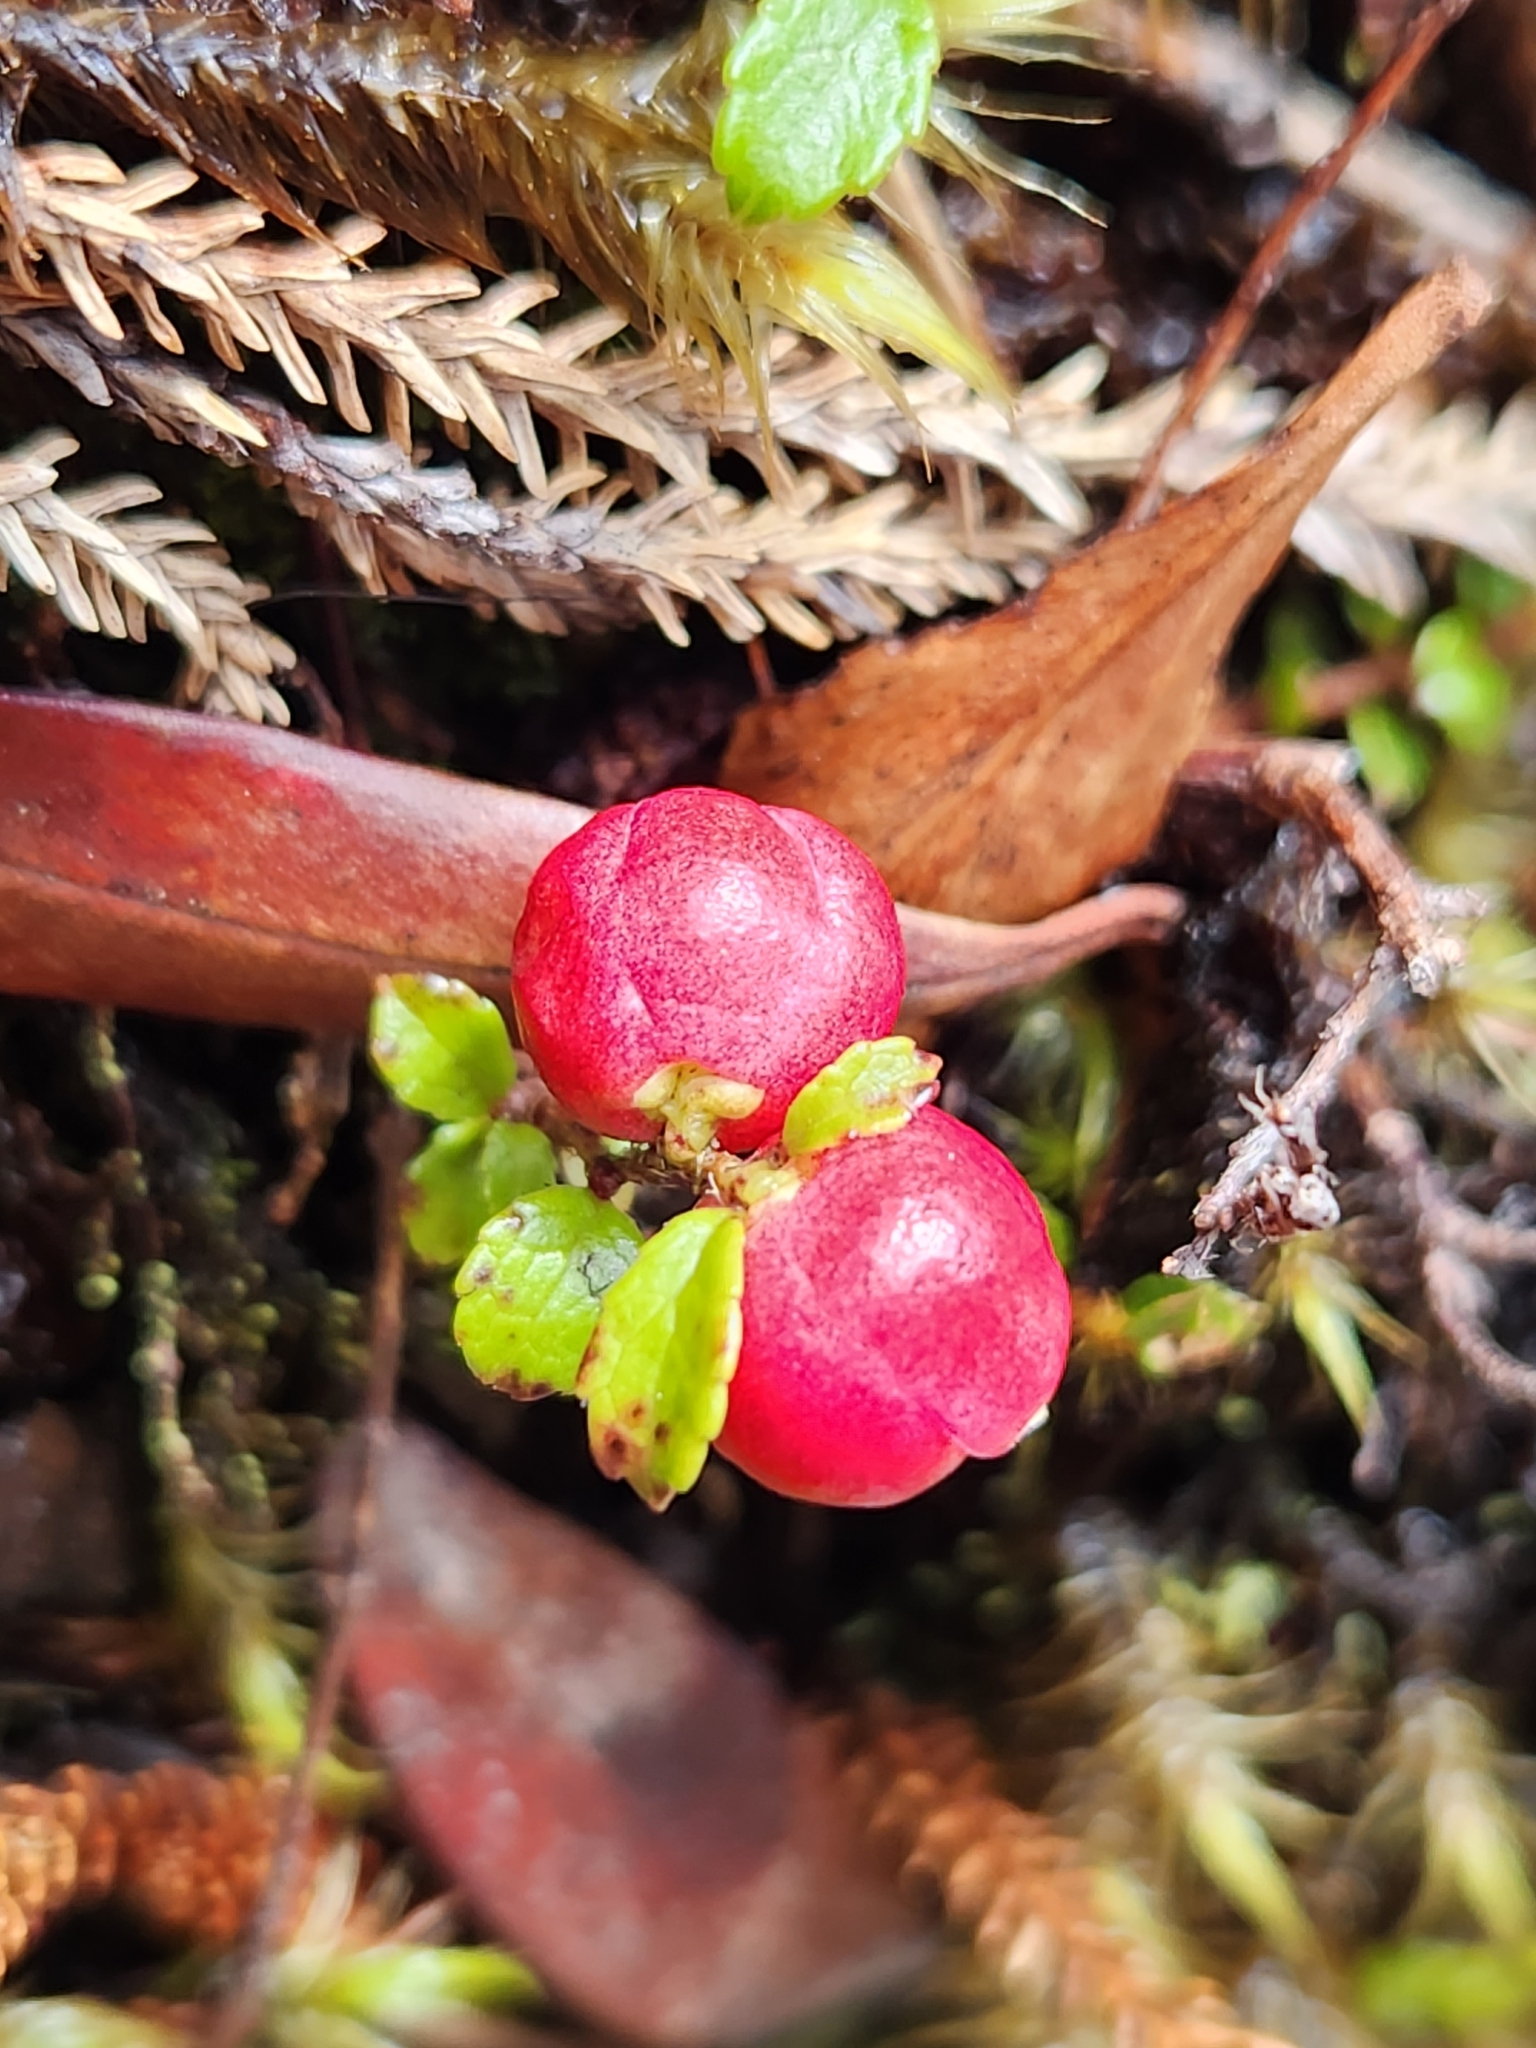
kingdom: Plantae
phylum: Tracheophyta
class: Magnoliopsida
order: Ericales
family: Ericaceae
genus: Gaultheria
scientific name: Gaultheria depressa
